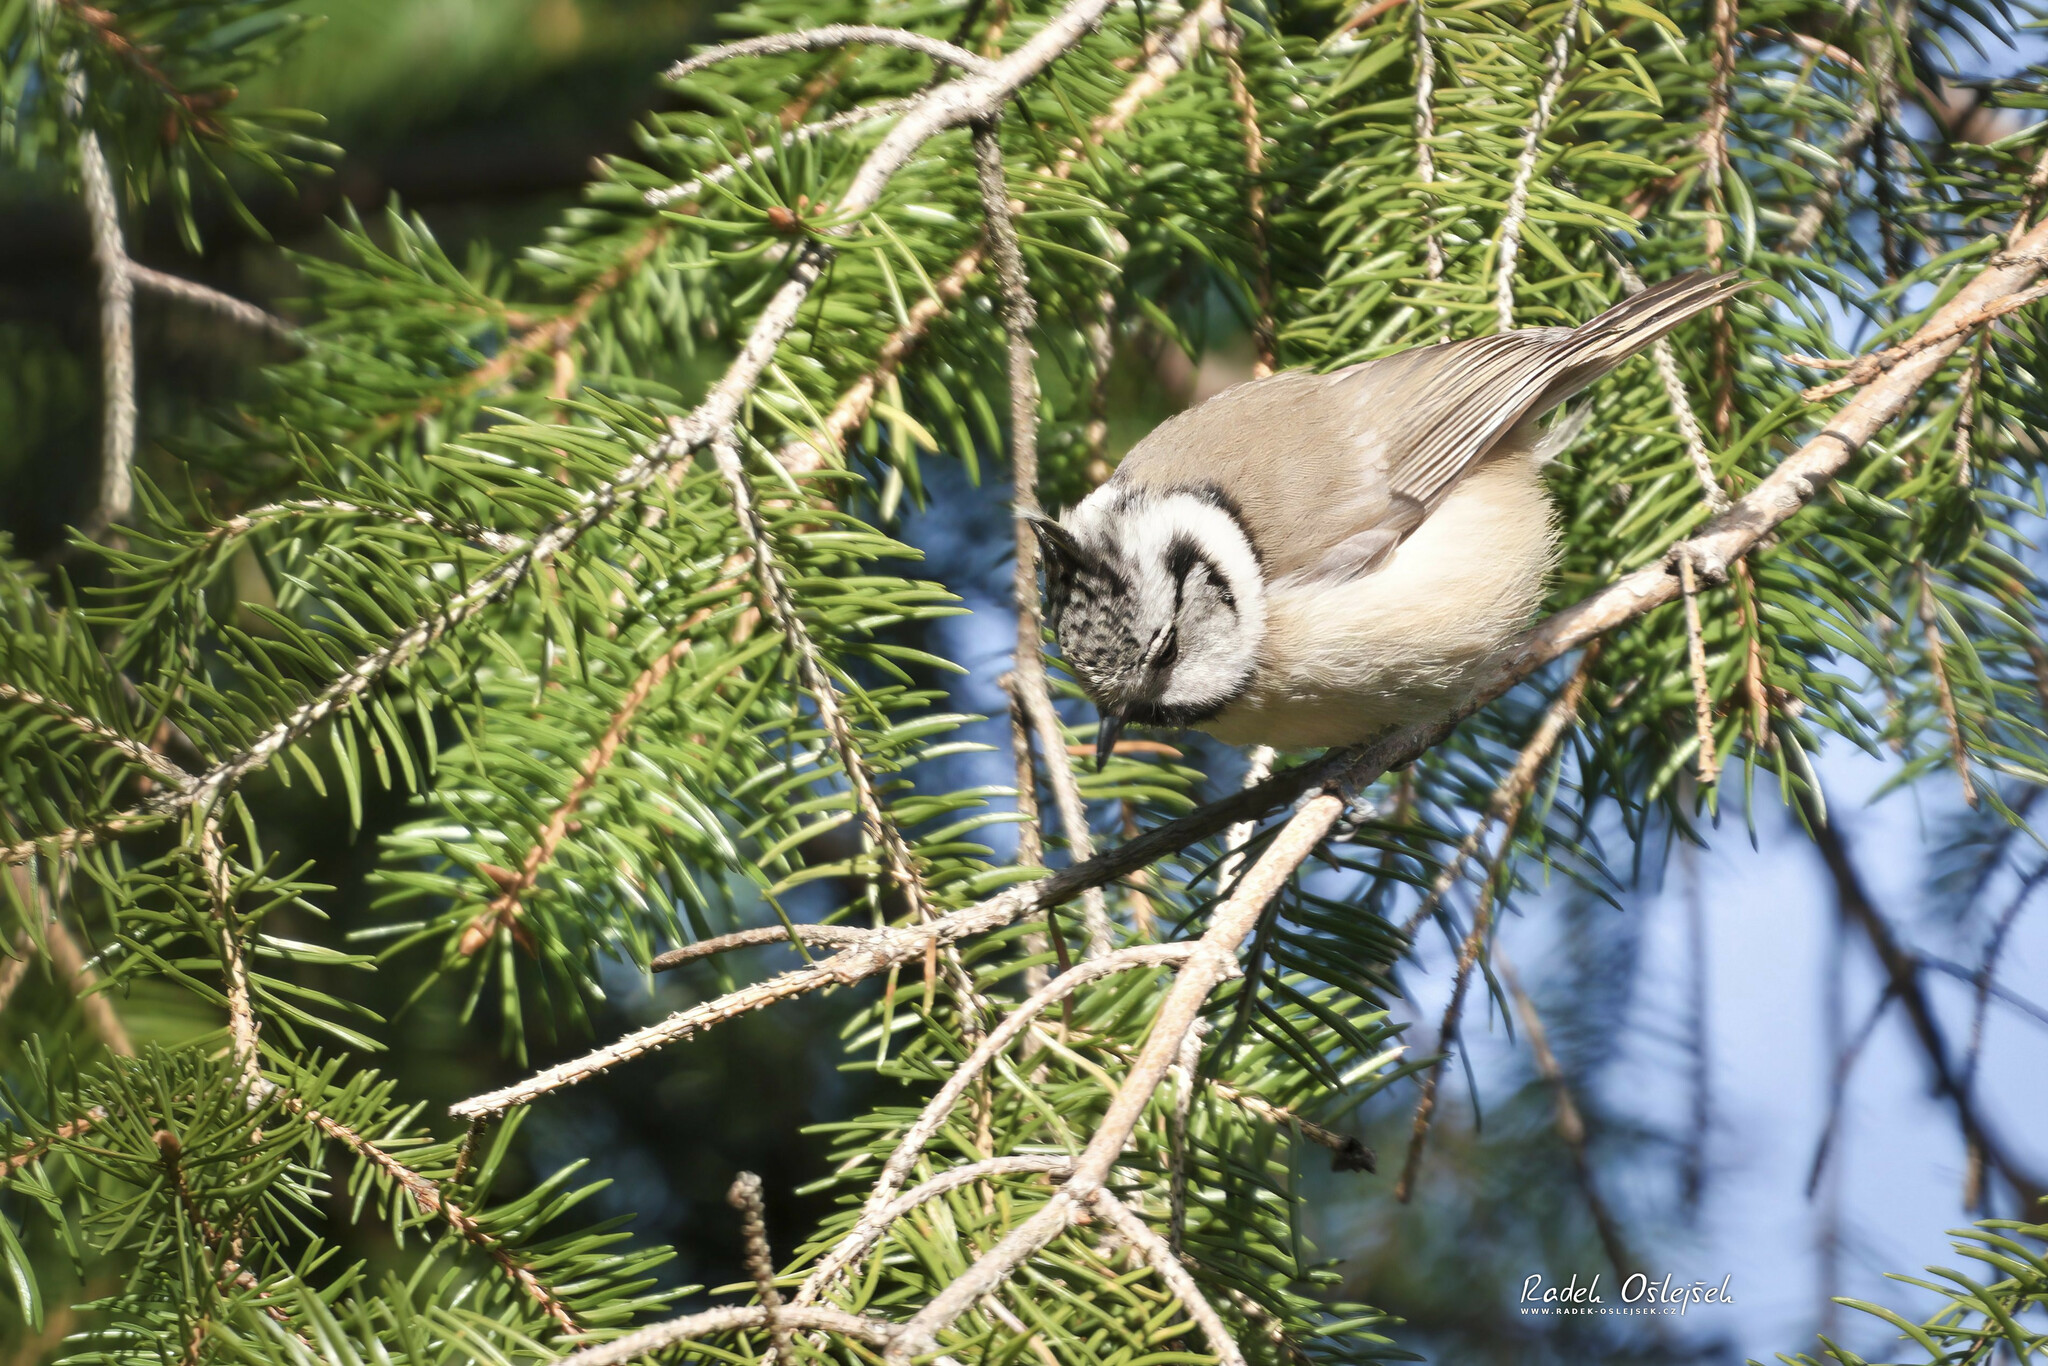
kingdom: Animalia
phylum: Chordata
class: Aves
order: Passeriformes
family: Paridae
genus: Lophophanes
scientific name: Lophophanes cristatus
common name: European crested tit
